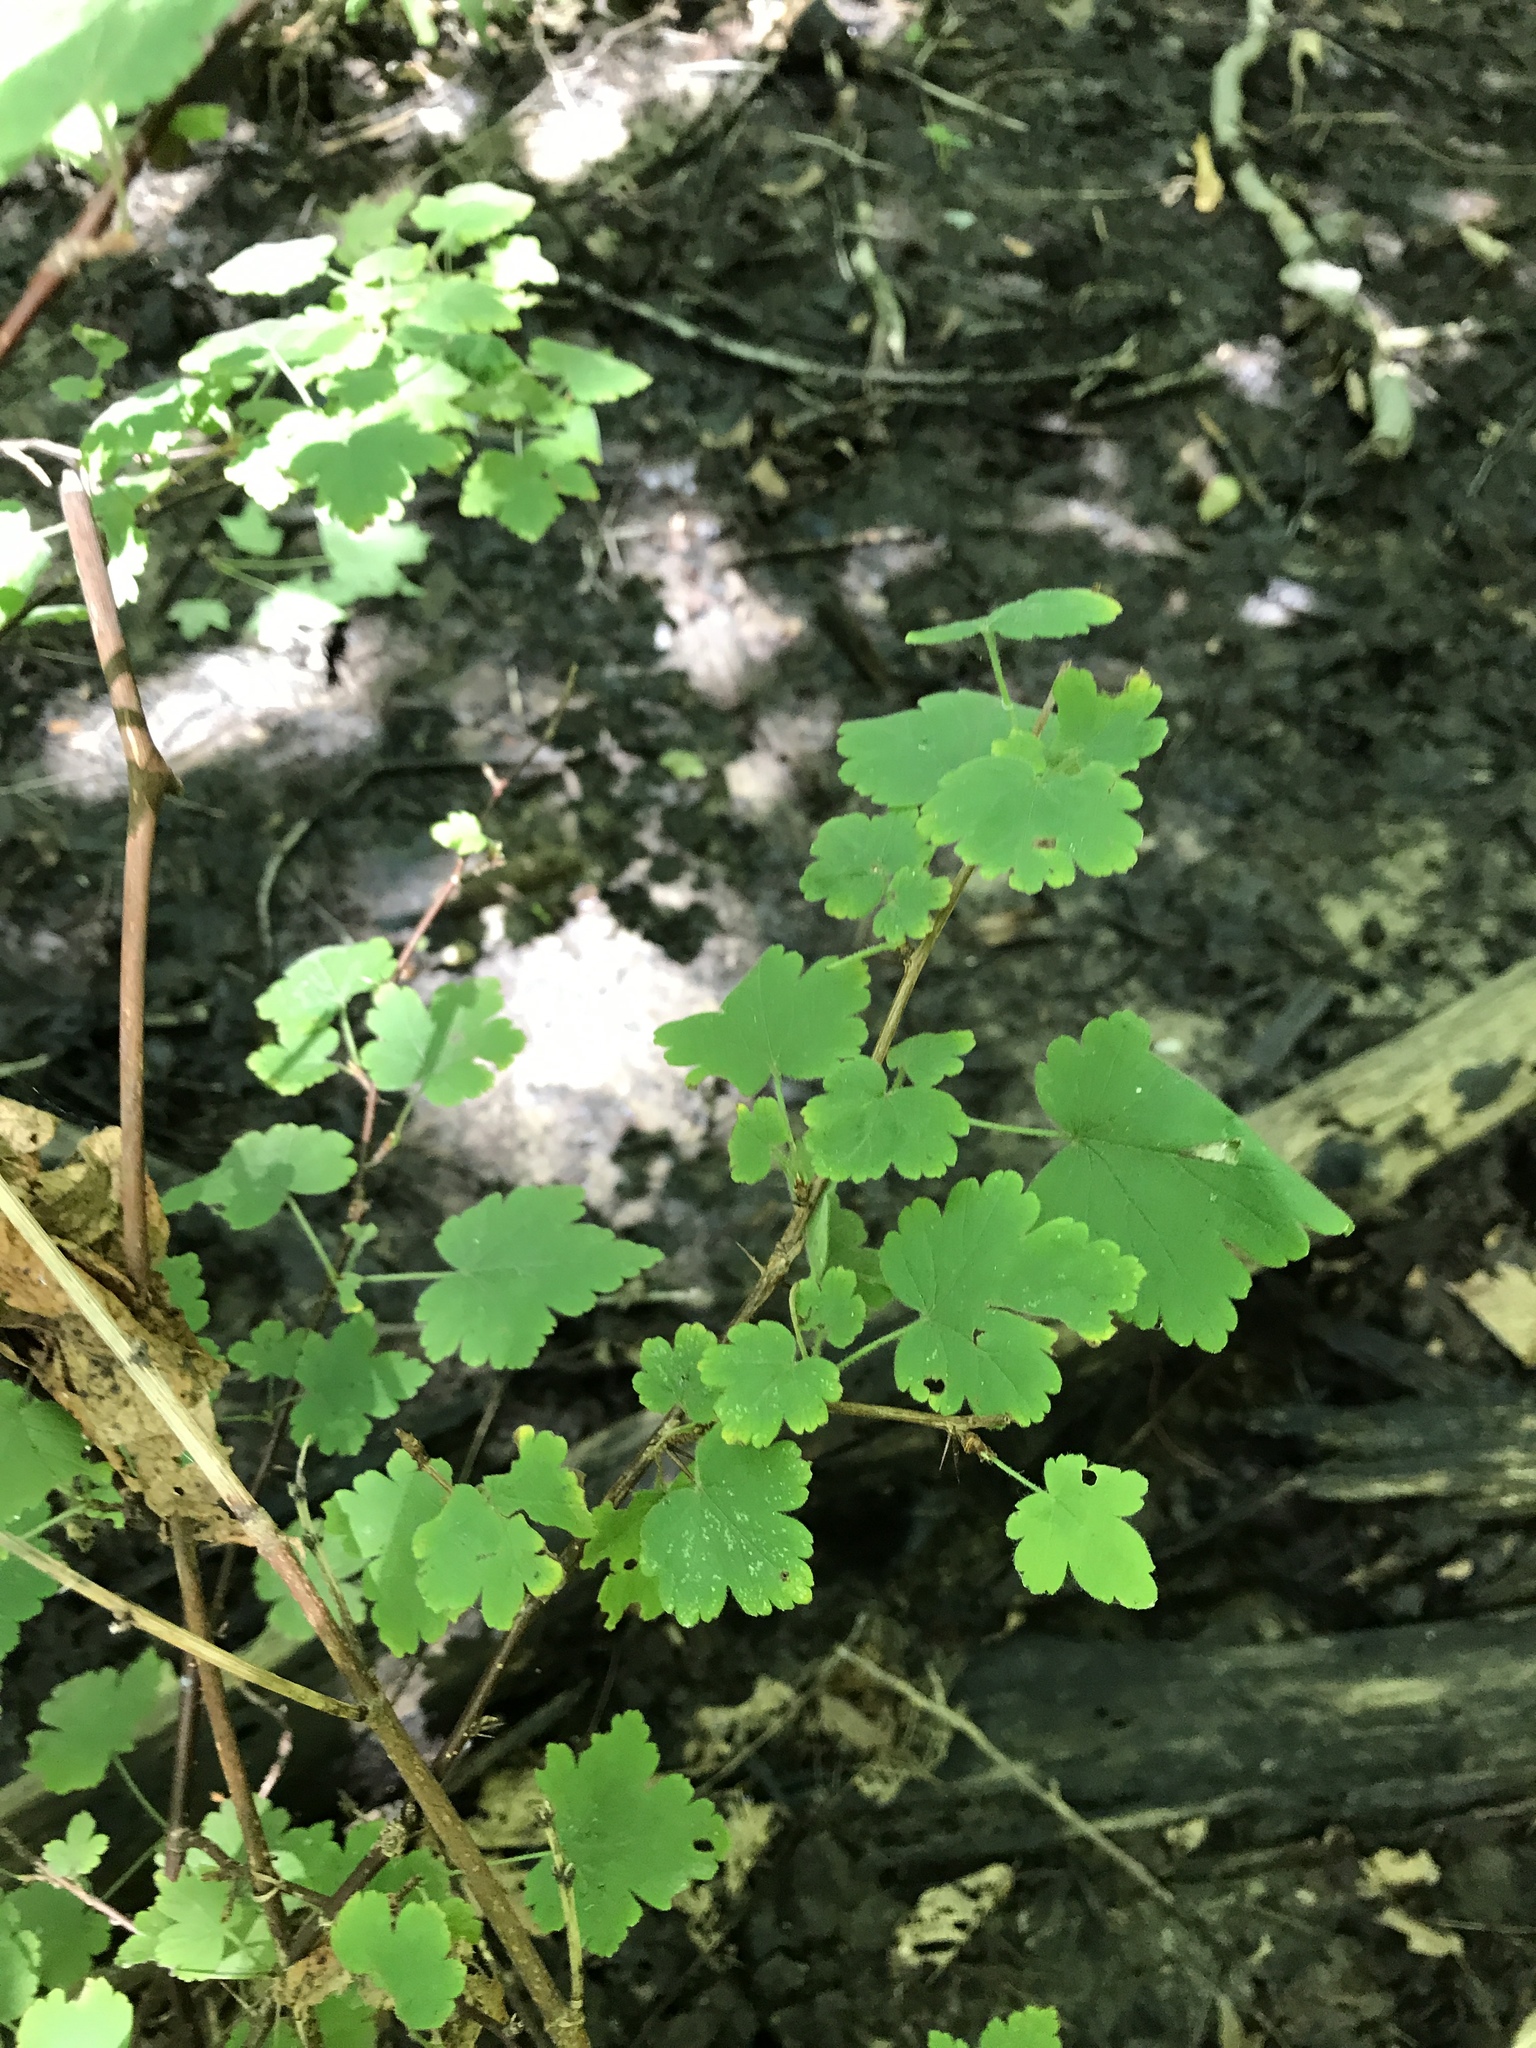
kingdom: Plantae
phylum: Tracheophyta
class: Magnoliopsida
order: Saxifragales
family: Grossulariaceae
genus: Ribes
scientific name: Ribes cynosbati
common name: American gooseberry
